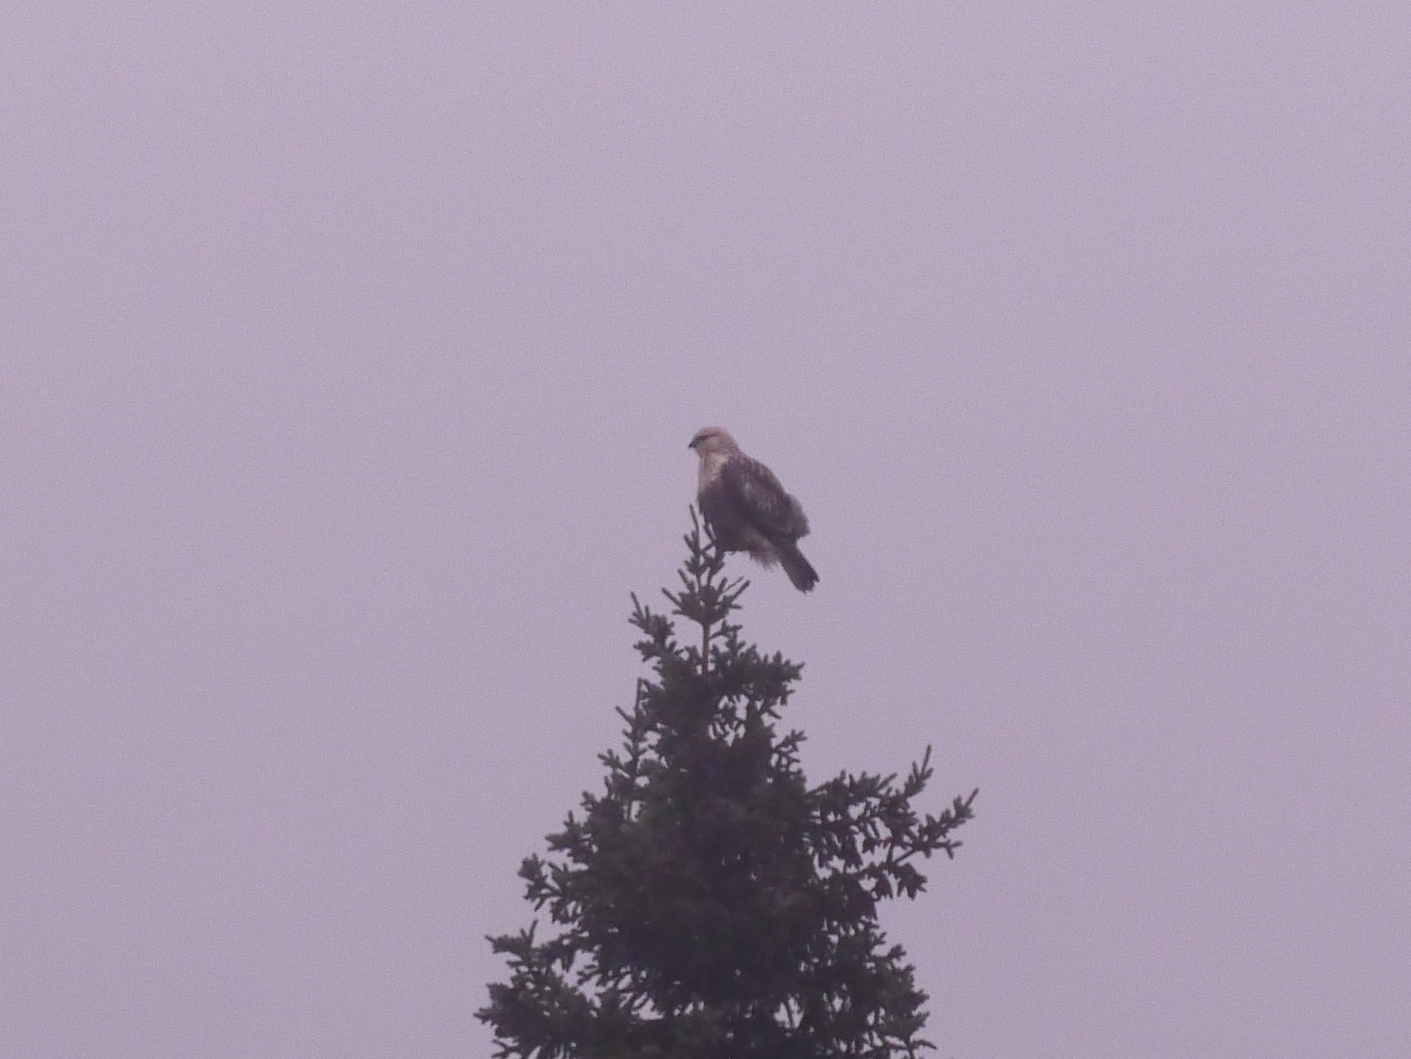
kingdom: Animalia
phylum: Chordata
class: Aves
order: Accipitriformes
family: Accipitridae
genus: Buteo
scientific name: Buteo lagopus
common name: Rough-legged buzzard
